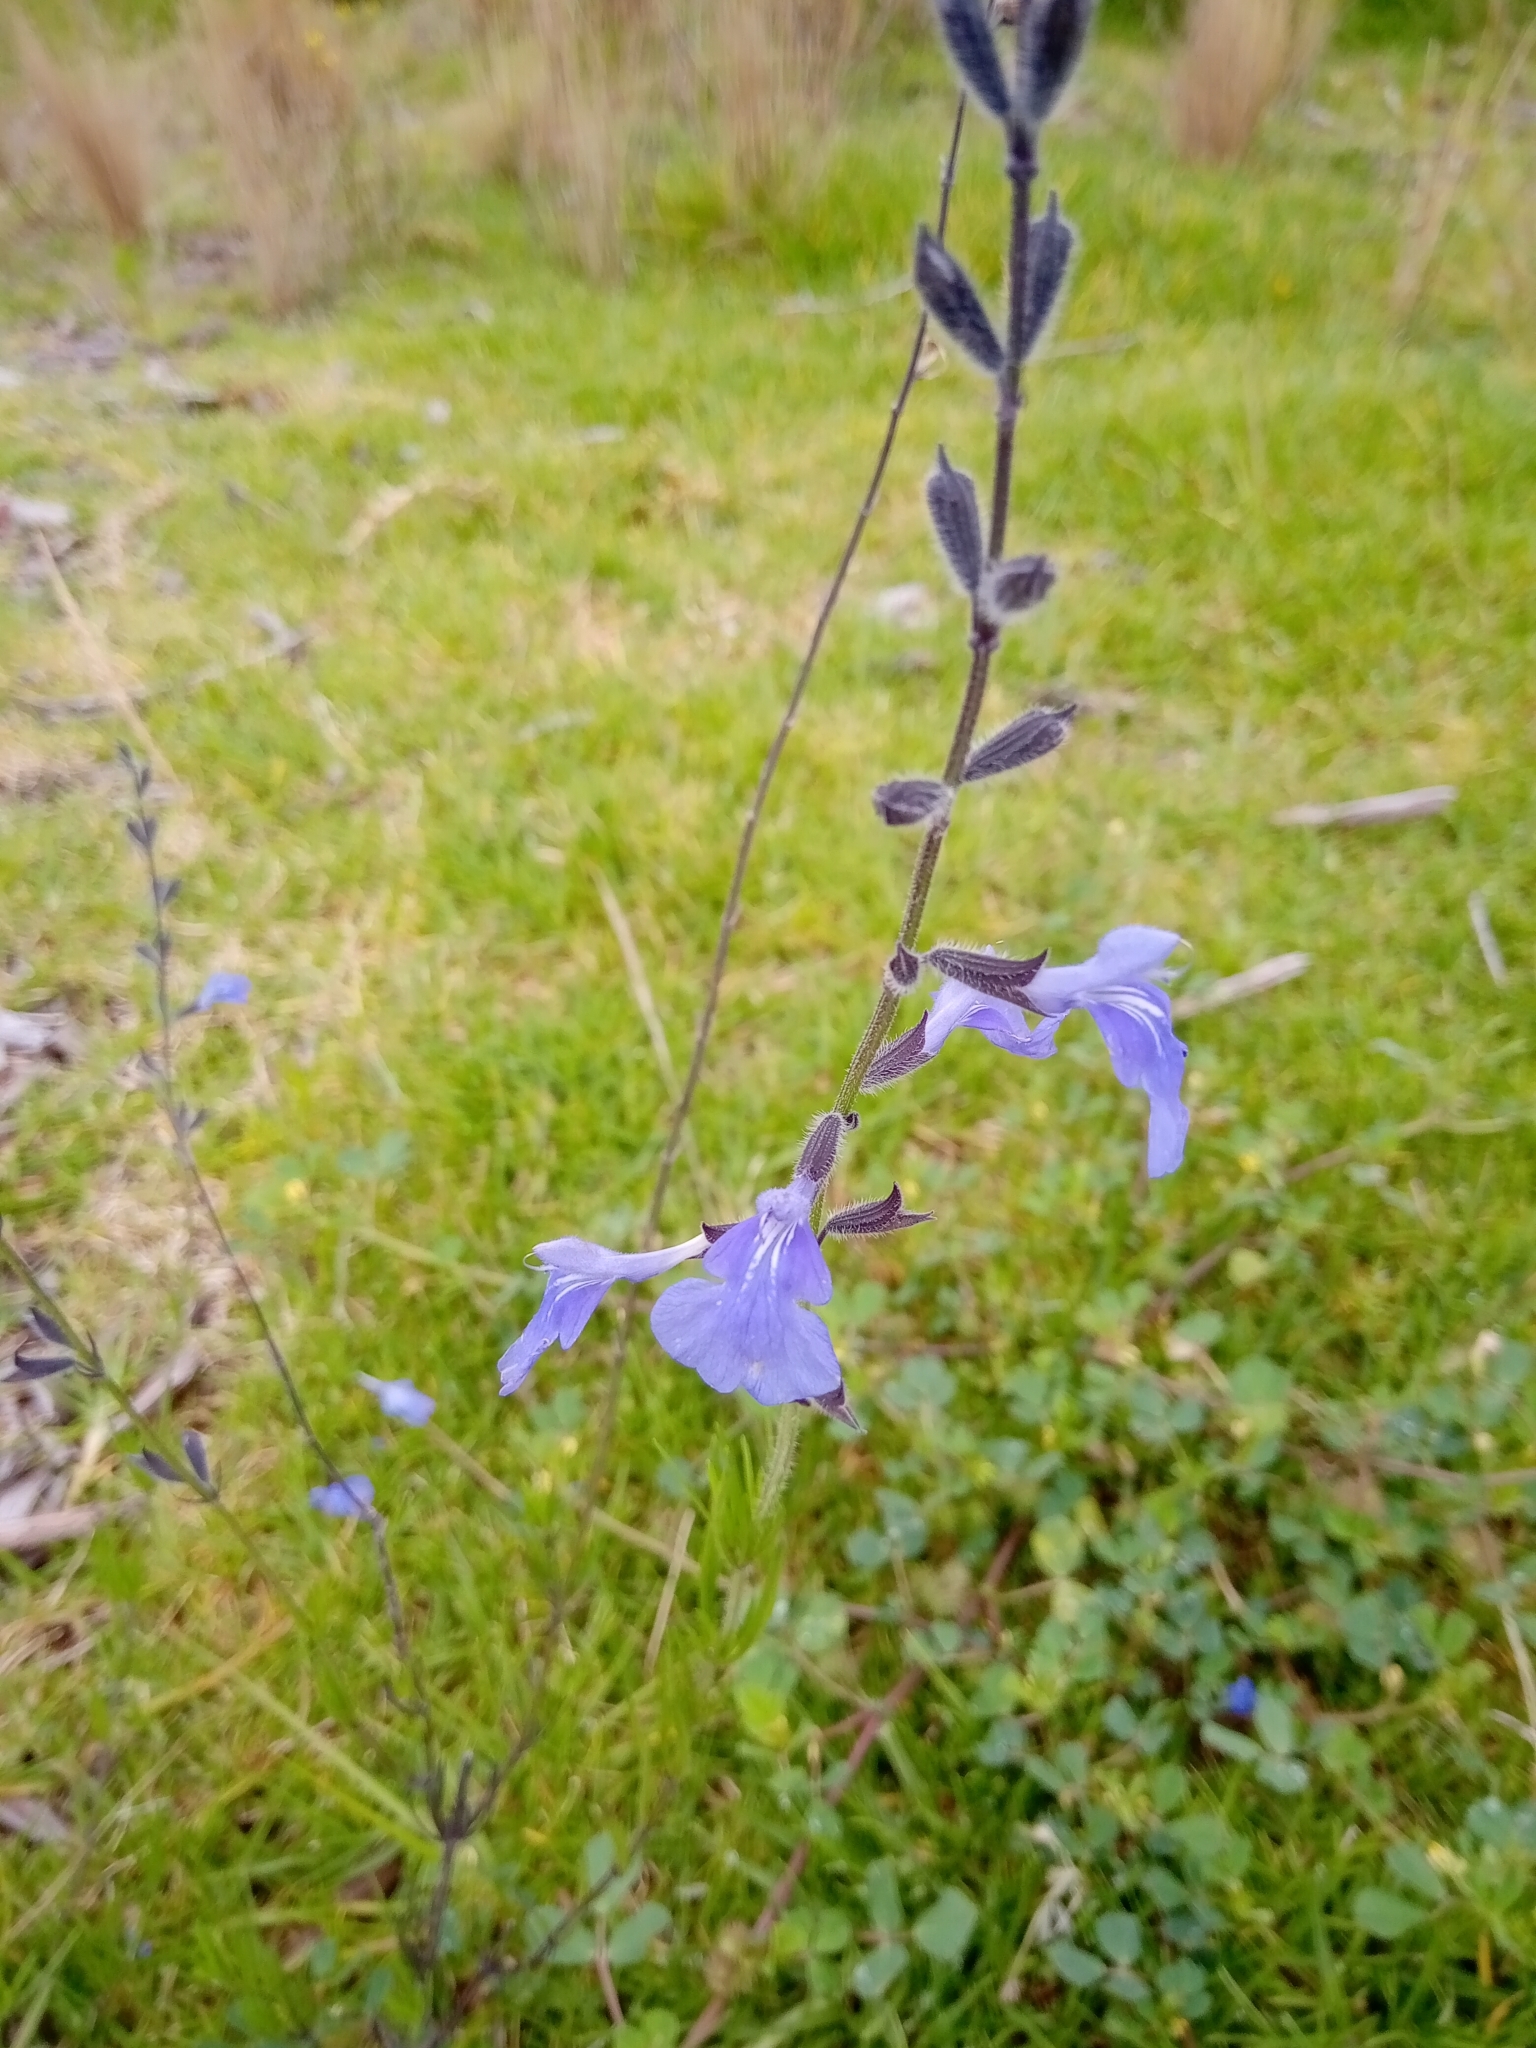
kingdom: Plantae
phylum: Tracheophyta
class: Magnoliopsida
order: Lamiales
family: Lamiaceae
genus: Salvia
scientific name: Salvia reptans
